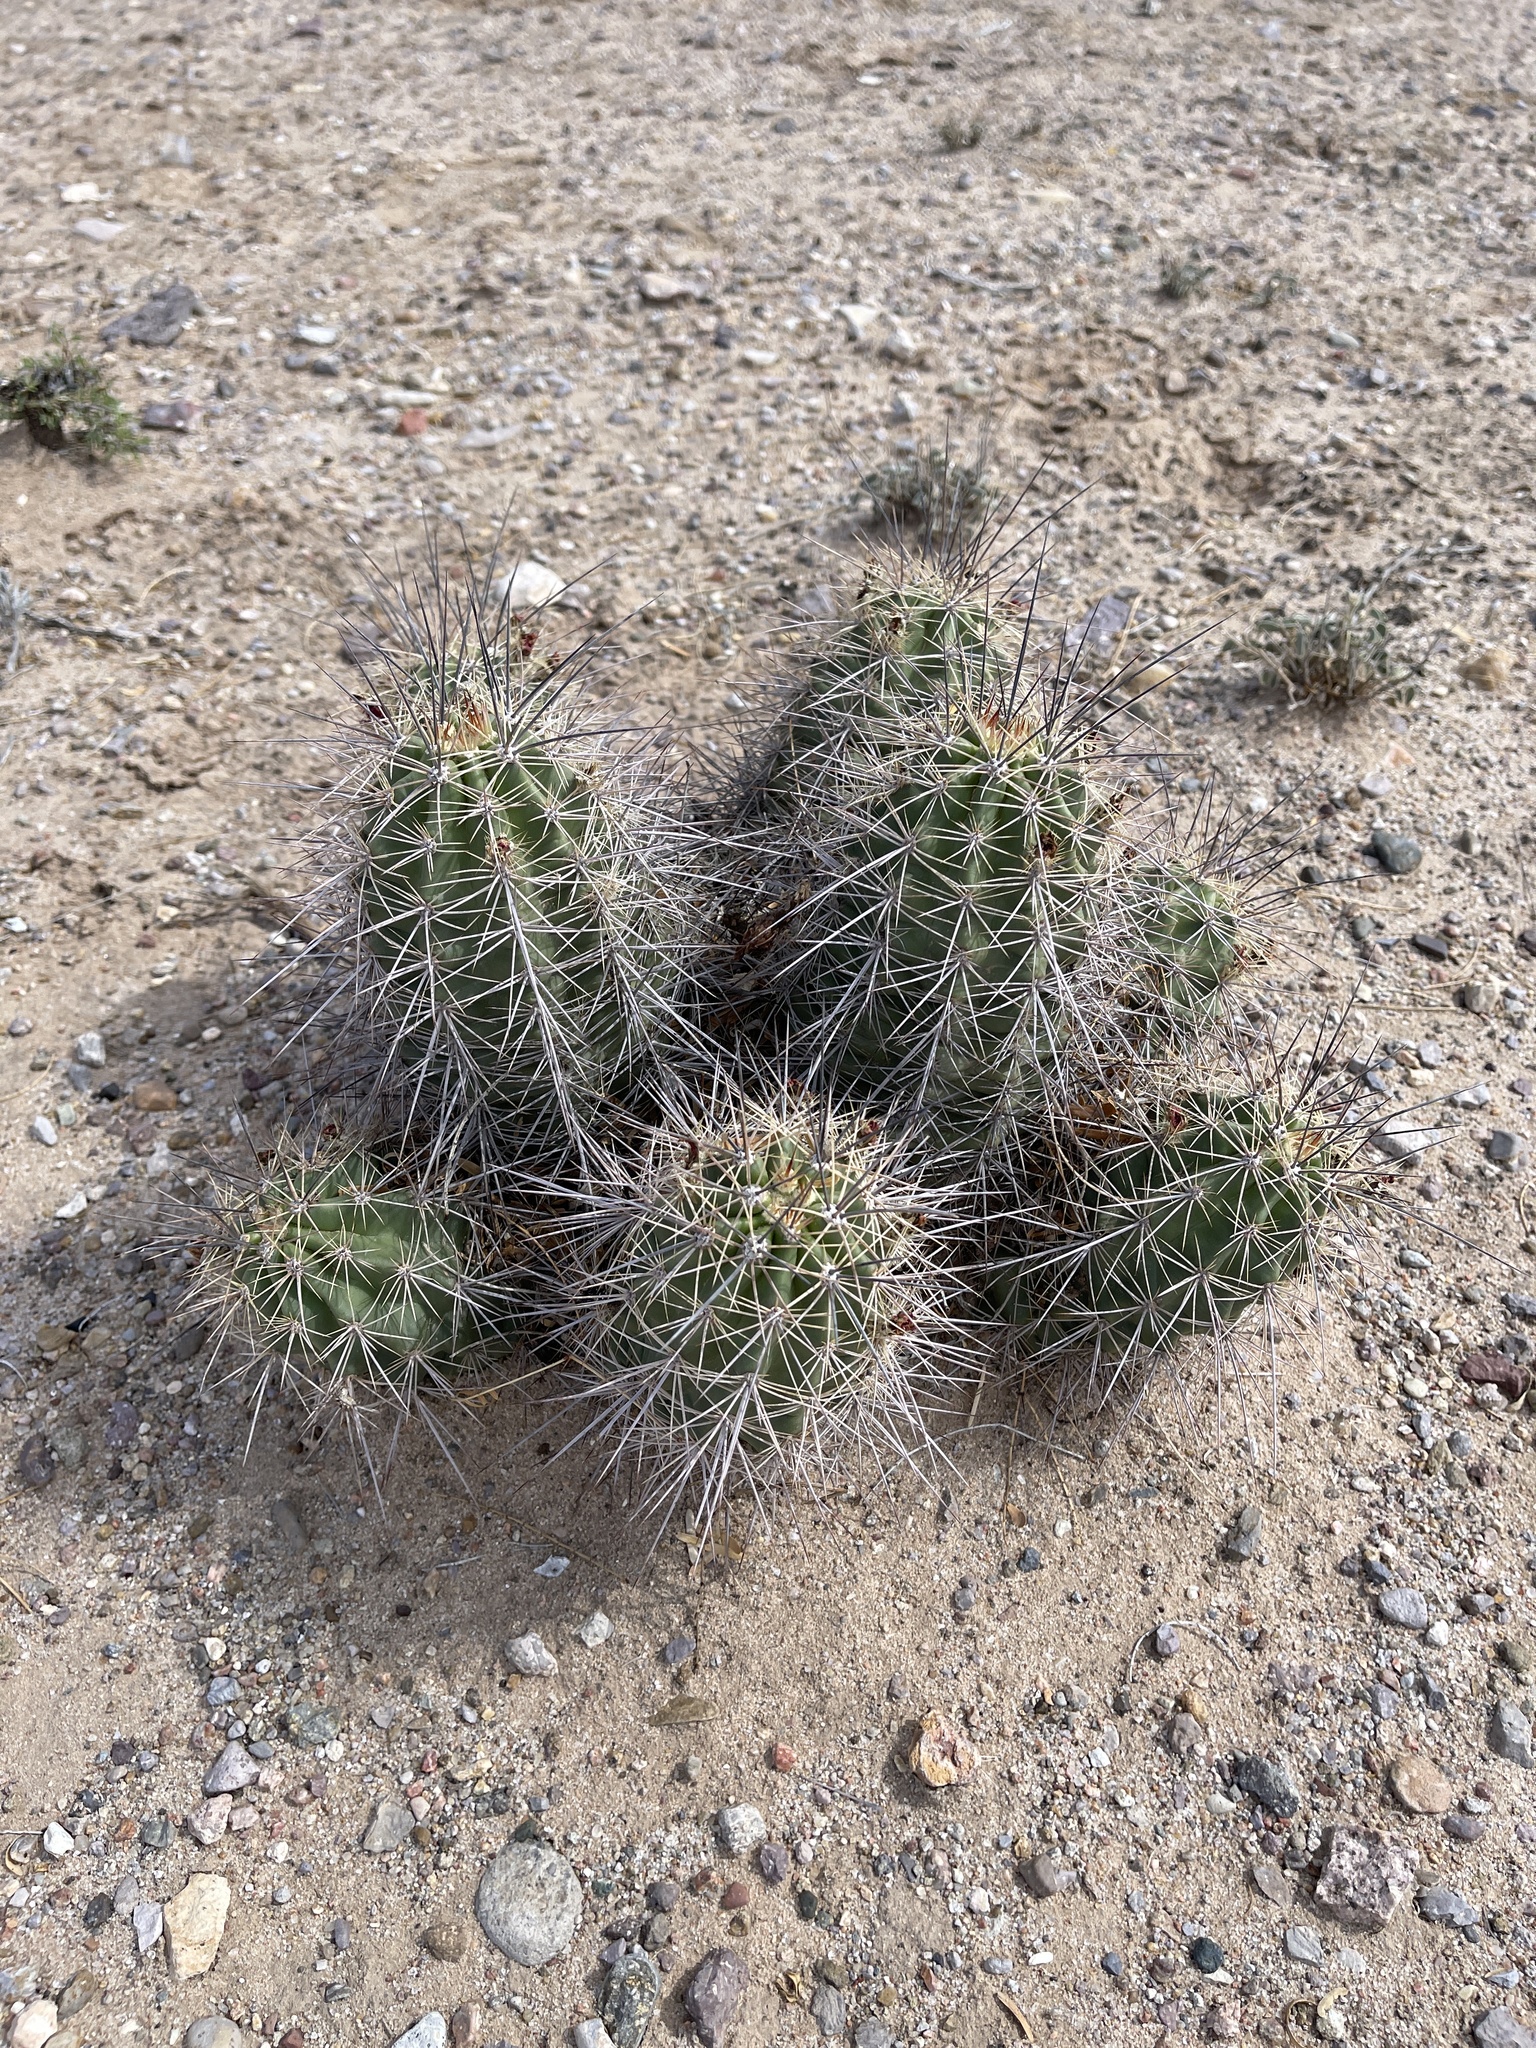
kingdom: Plantae
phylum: Tracheophyta
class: Magnoliopsida
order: Caryophyllales
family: Cactaceae
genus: Echinocereus
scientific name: Echinocereus coccineus
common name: Scarlet hedgehog cactus
